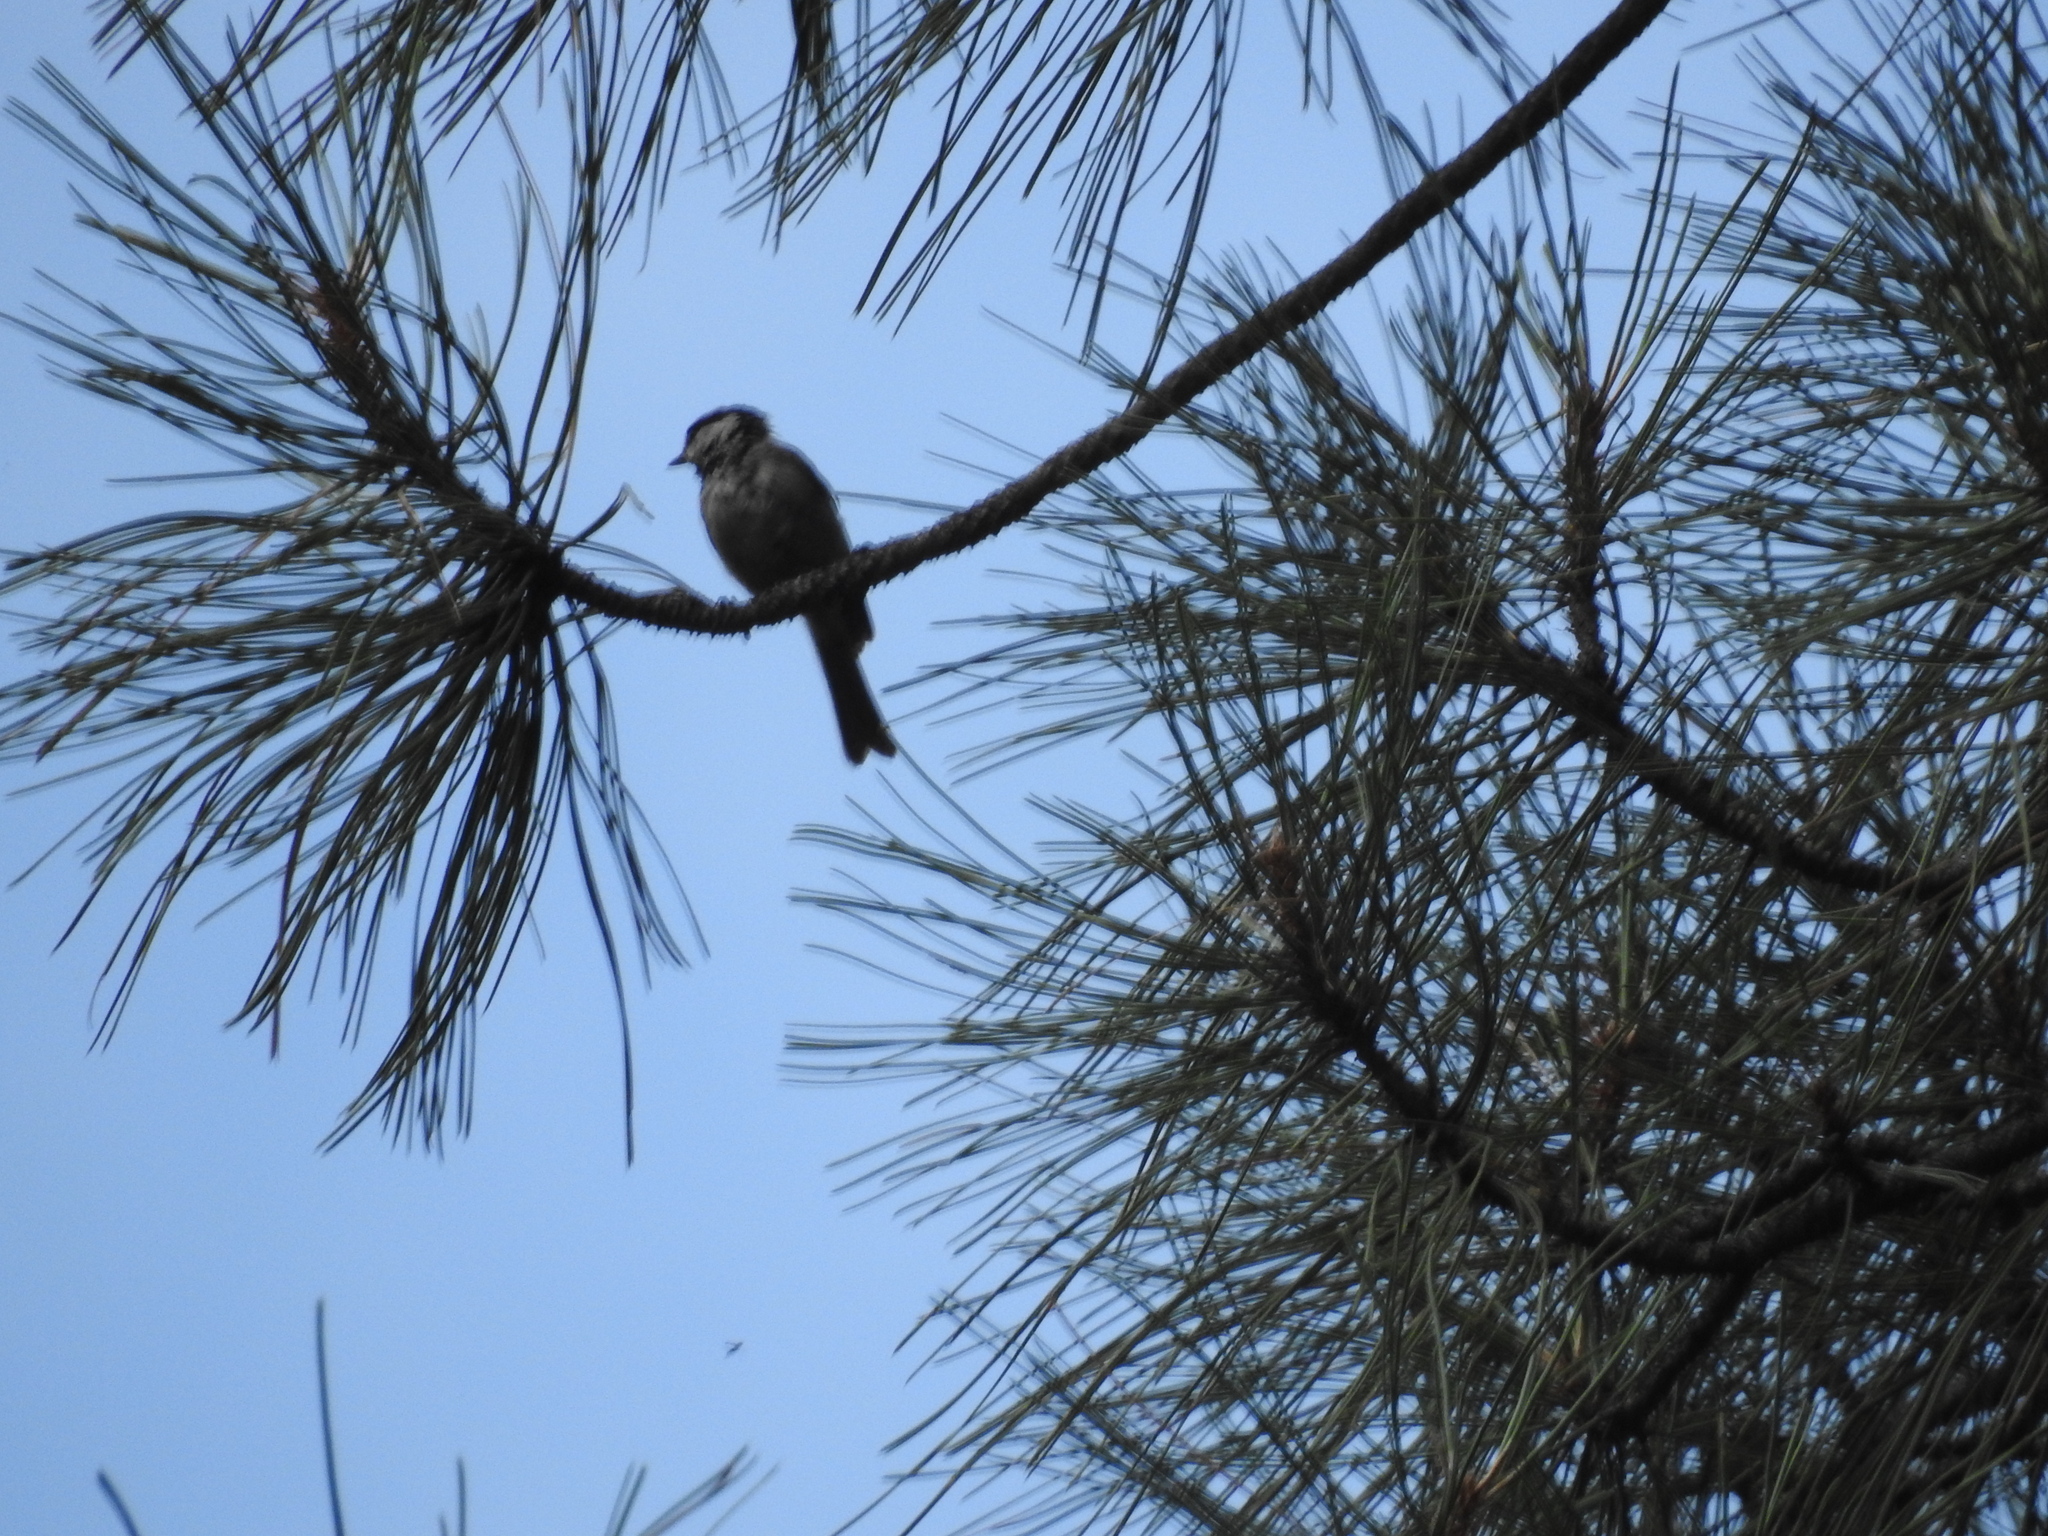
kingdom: Animalia
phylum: Chordata
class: Aves
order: Passeriformes
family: Paridae
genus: Poecile
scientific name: Poecile gambeli
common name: Mountain chickadee
